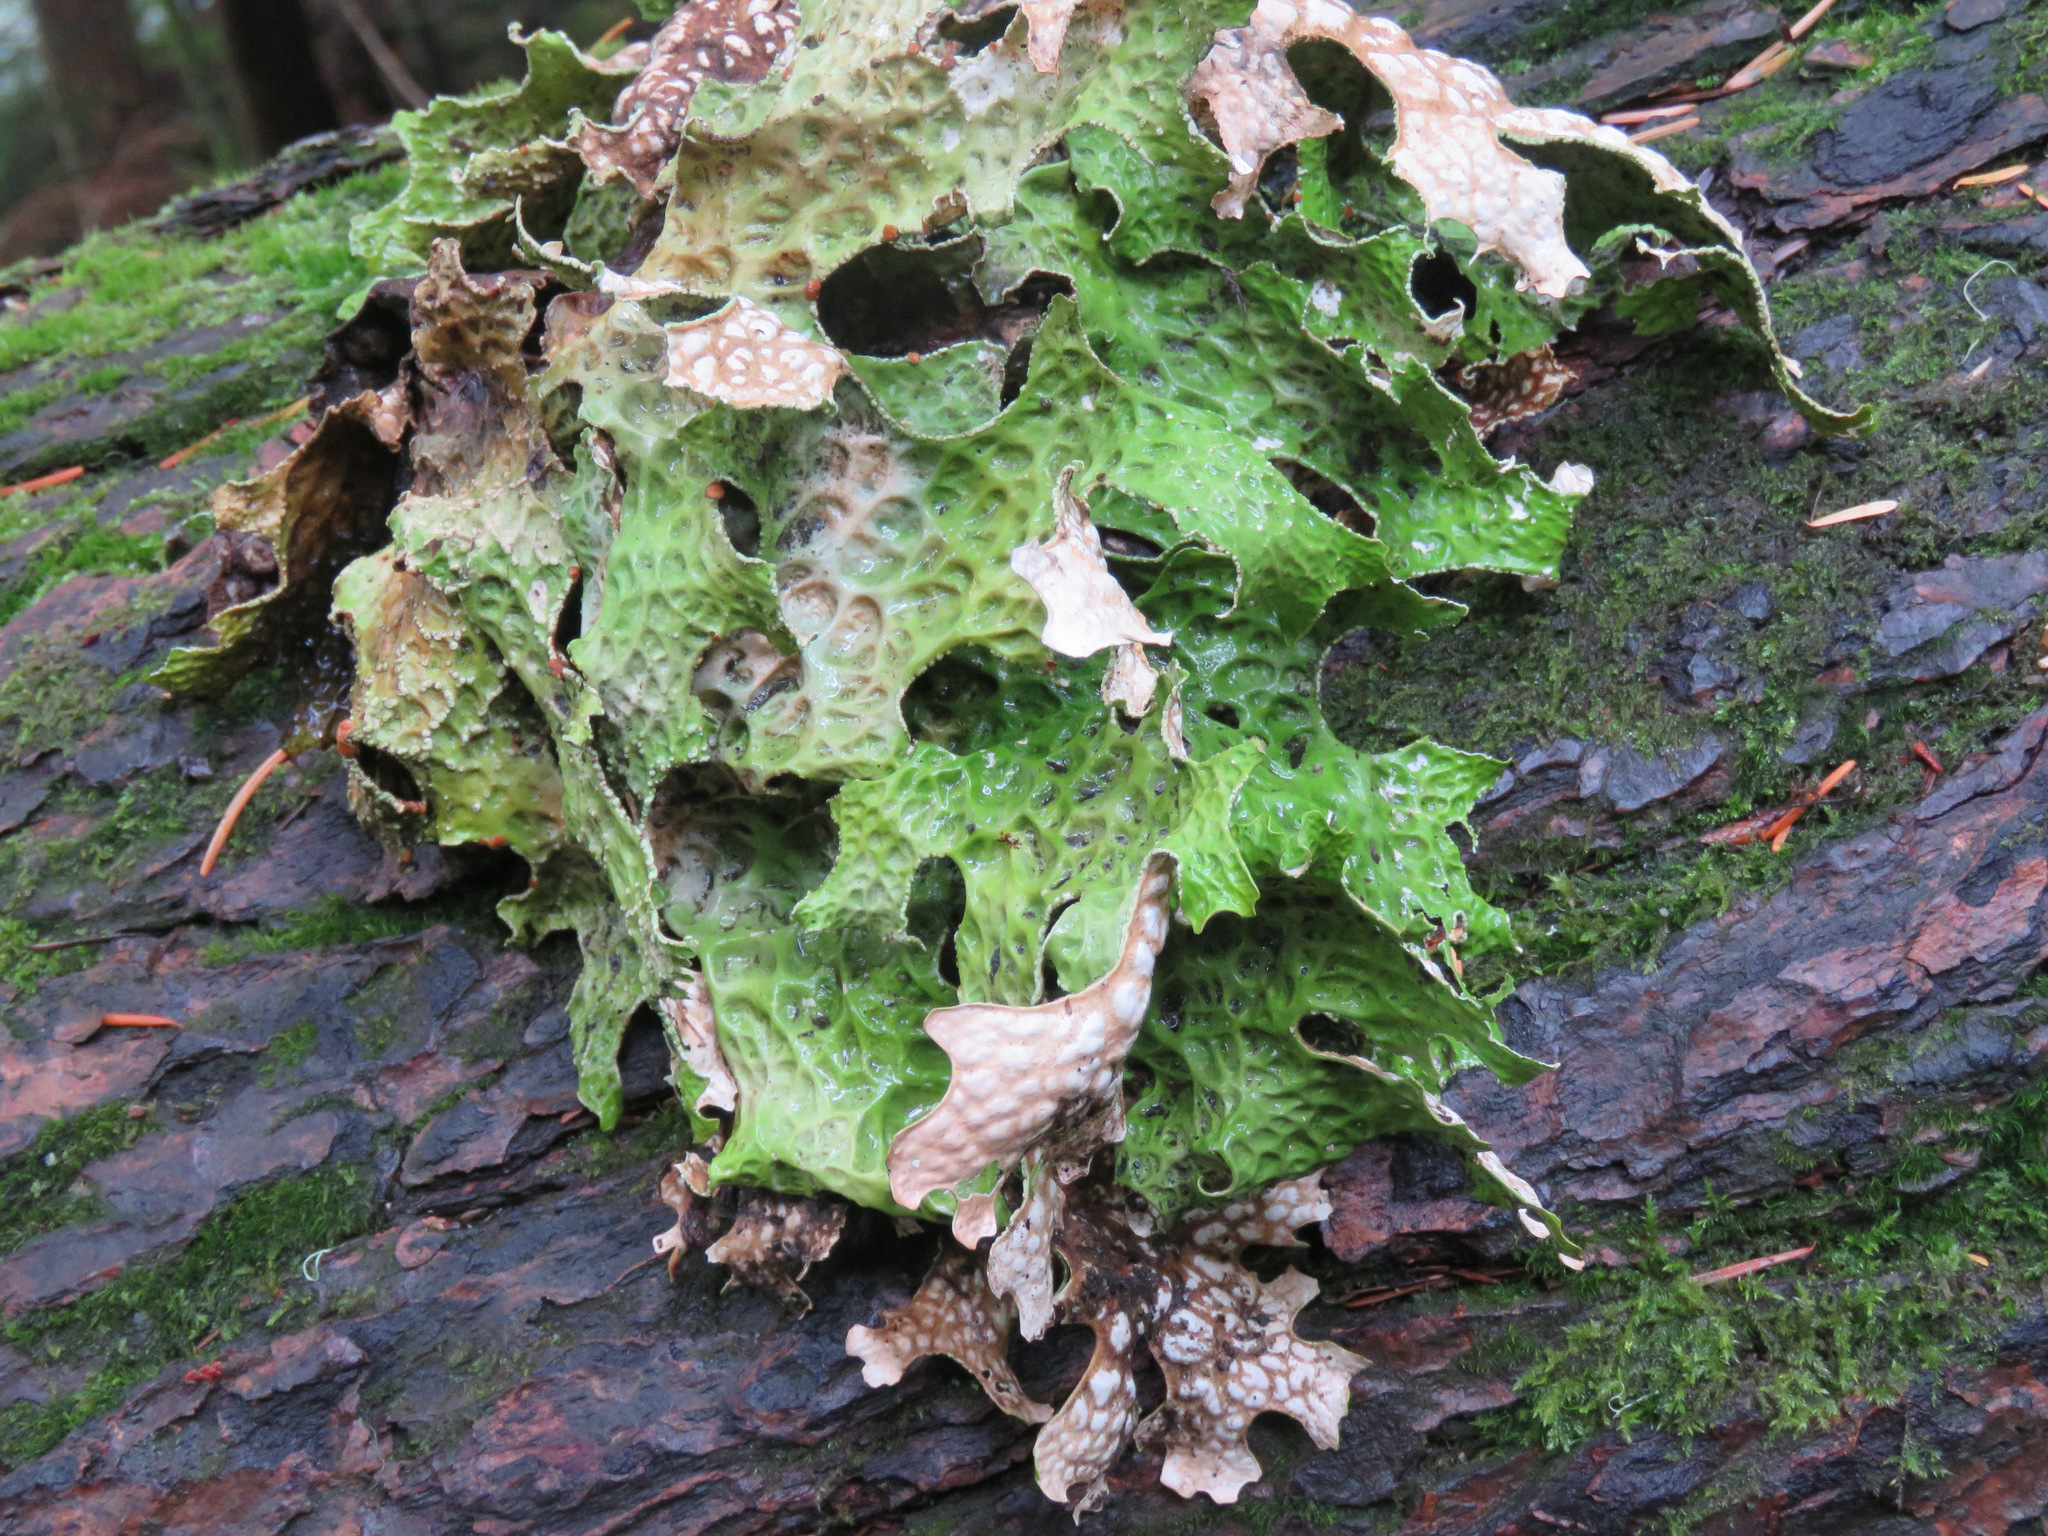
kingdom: Fungi
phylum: Ascomycota
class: Lecanoromycetes
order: Peltigerales
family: Lobariaceae
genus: Lobaria
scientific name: Lobaria pulmonaria
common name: Lungwort
